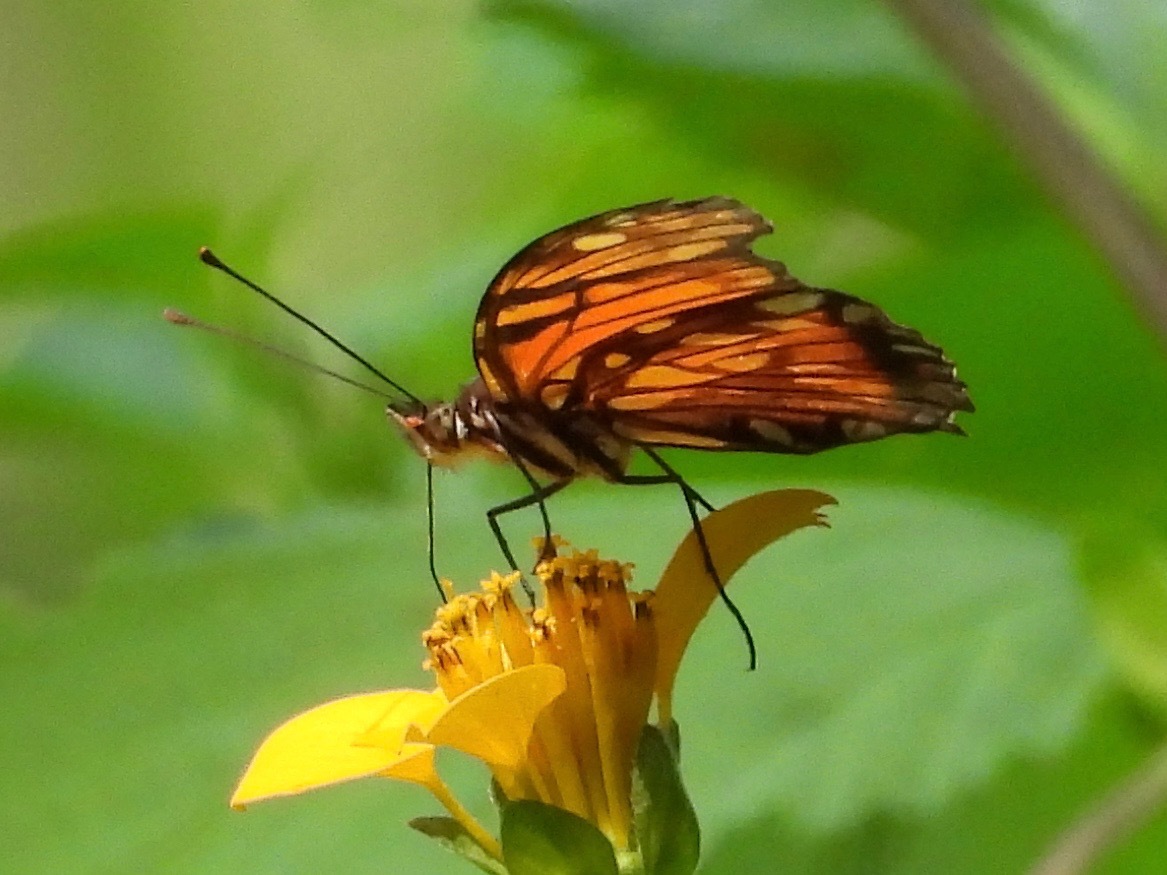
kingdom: Animalia
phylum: Arthropoda
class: Insecta
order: Lepidoptera
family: Nymphalidae
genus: Dione
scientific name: Dione juno
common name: Juno silverspot
